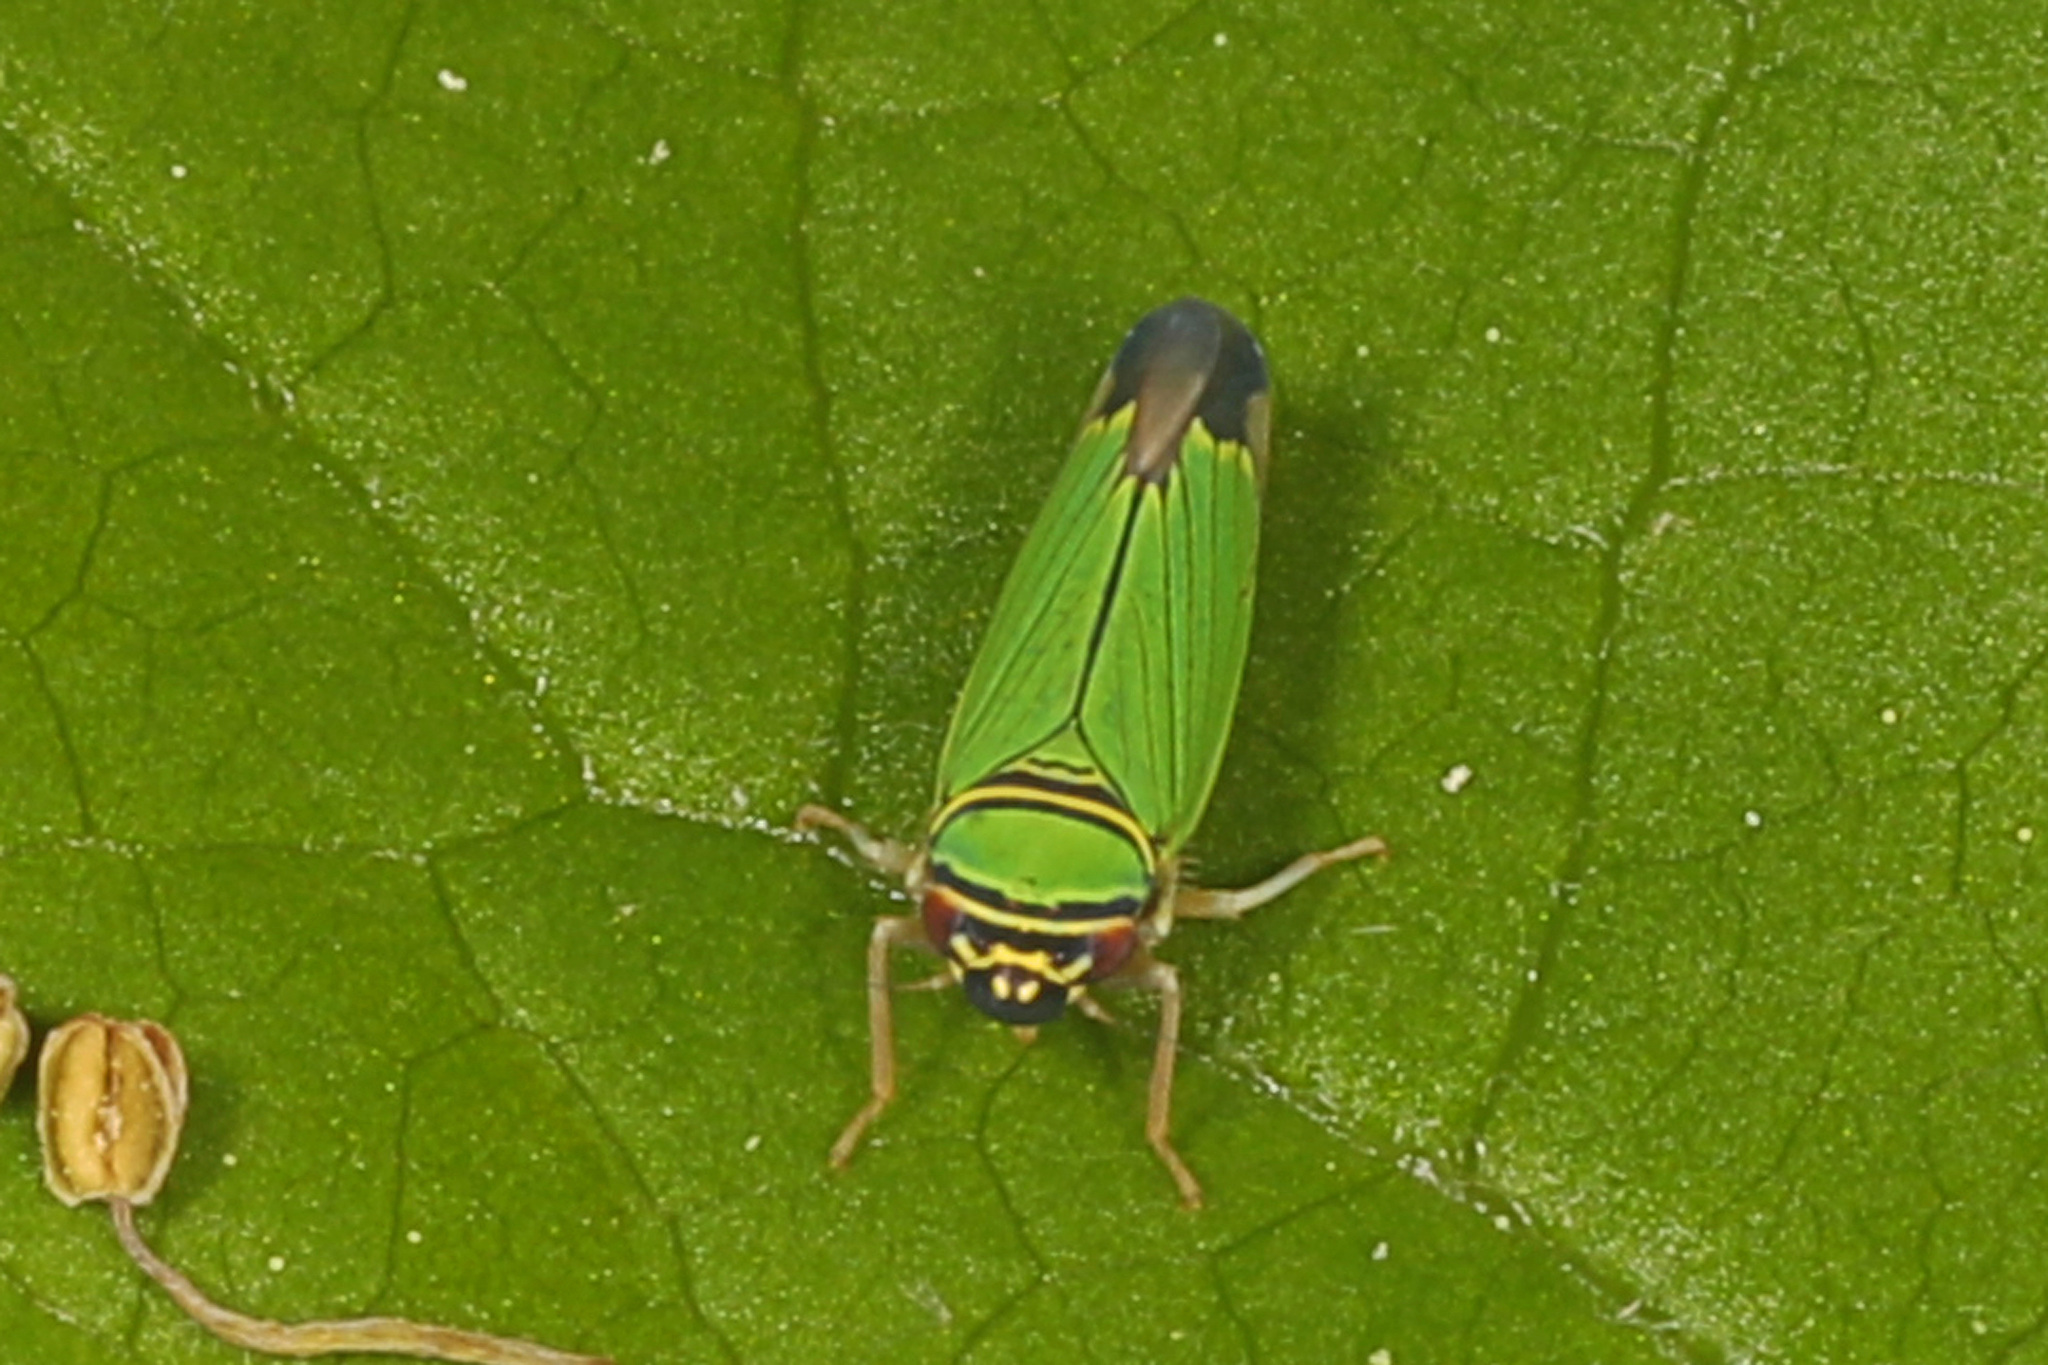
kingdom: Animalia
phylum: Arthropoda
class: Insecta
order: Hemiptera
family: Cicadellidae
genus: Tylozygus
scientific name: Tylozygus geometricus
